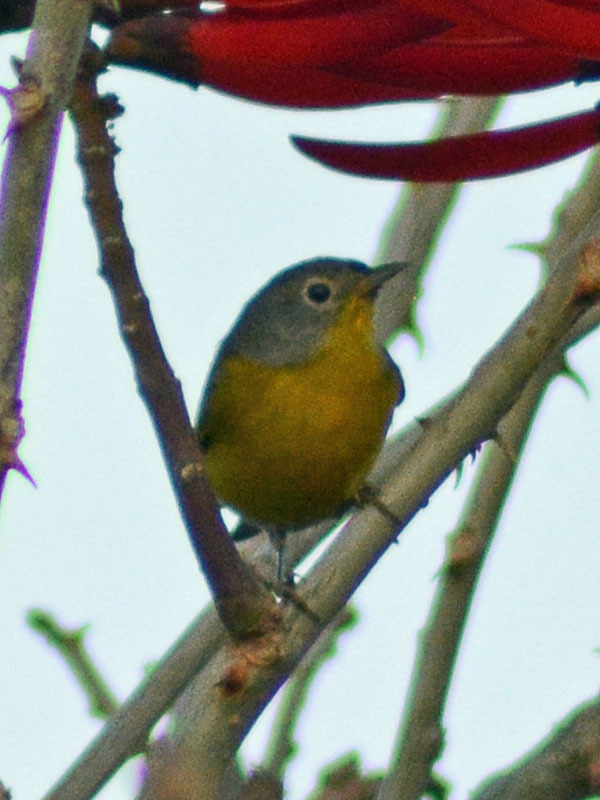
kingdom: Animalia
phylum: Chordata
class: Aves
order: Passeriformes
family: Parulidae
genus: Leiothlypis
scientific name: Leiothlypis ruficapilla
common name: Nashville warbler
